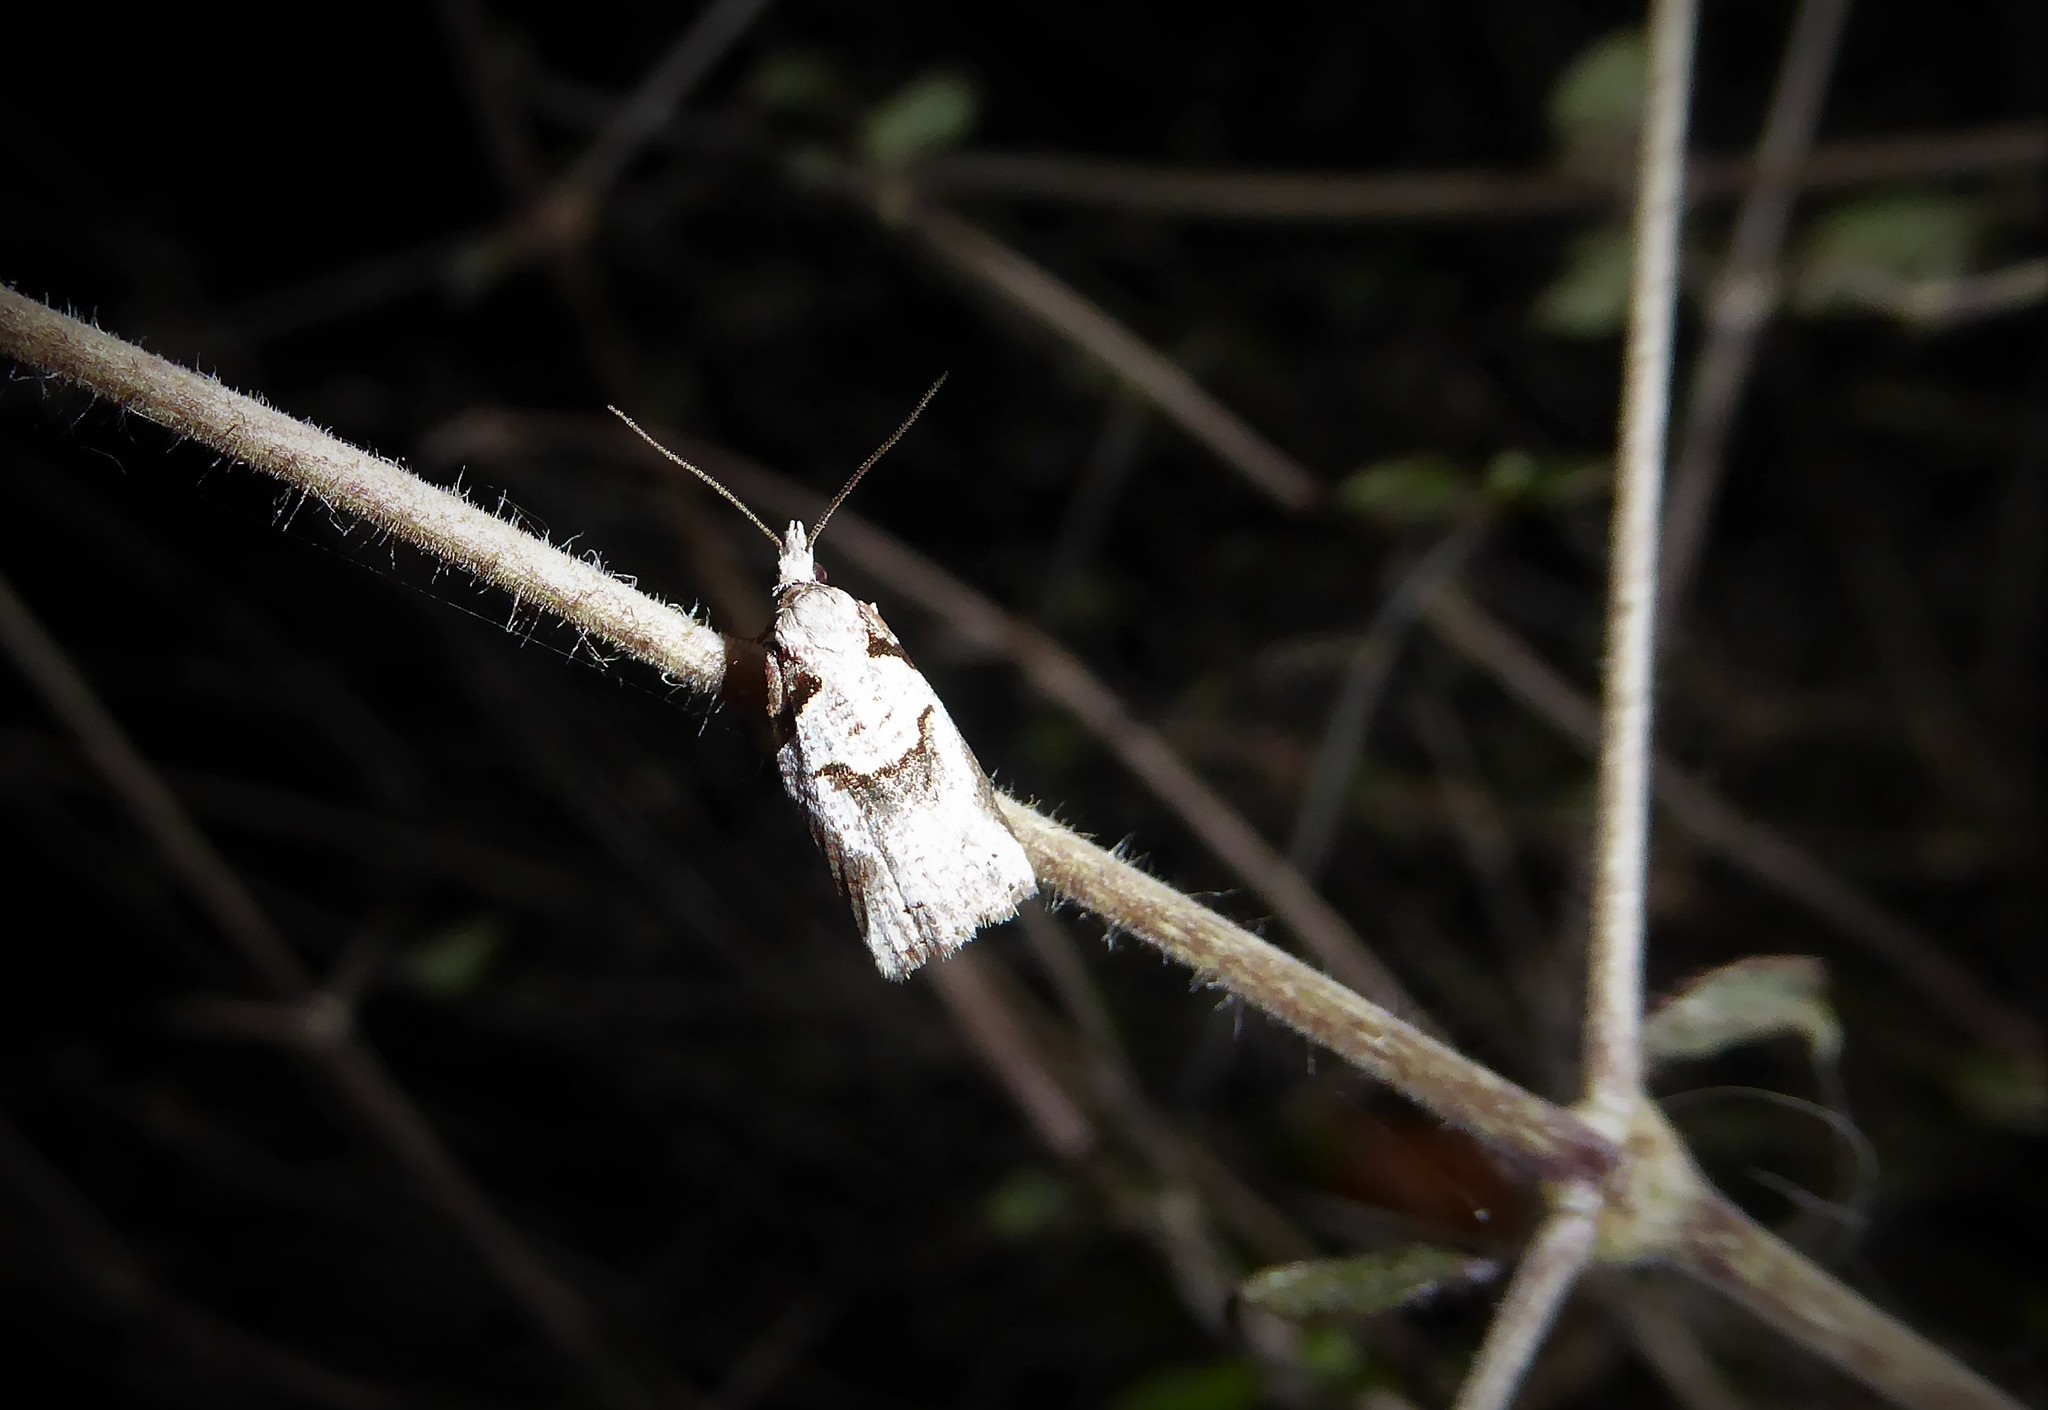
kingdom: Animalia
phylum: Arthropoda
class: Insecta
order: Lepidoptera
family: Tortricidae
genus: Harmologa
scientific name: Harmologa amplexana
